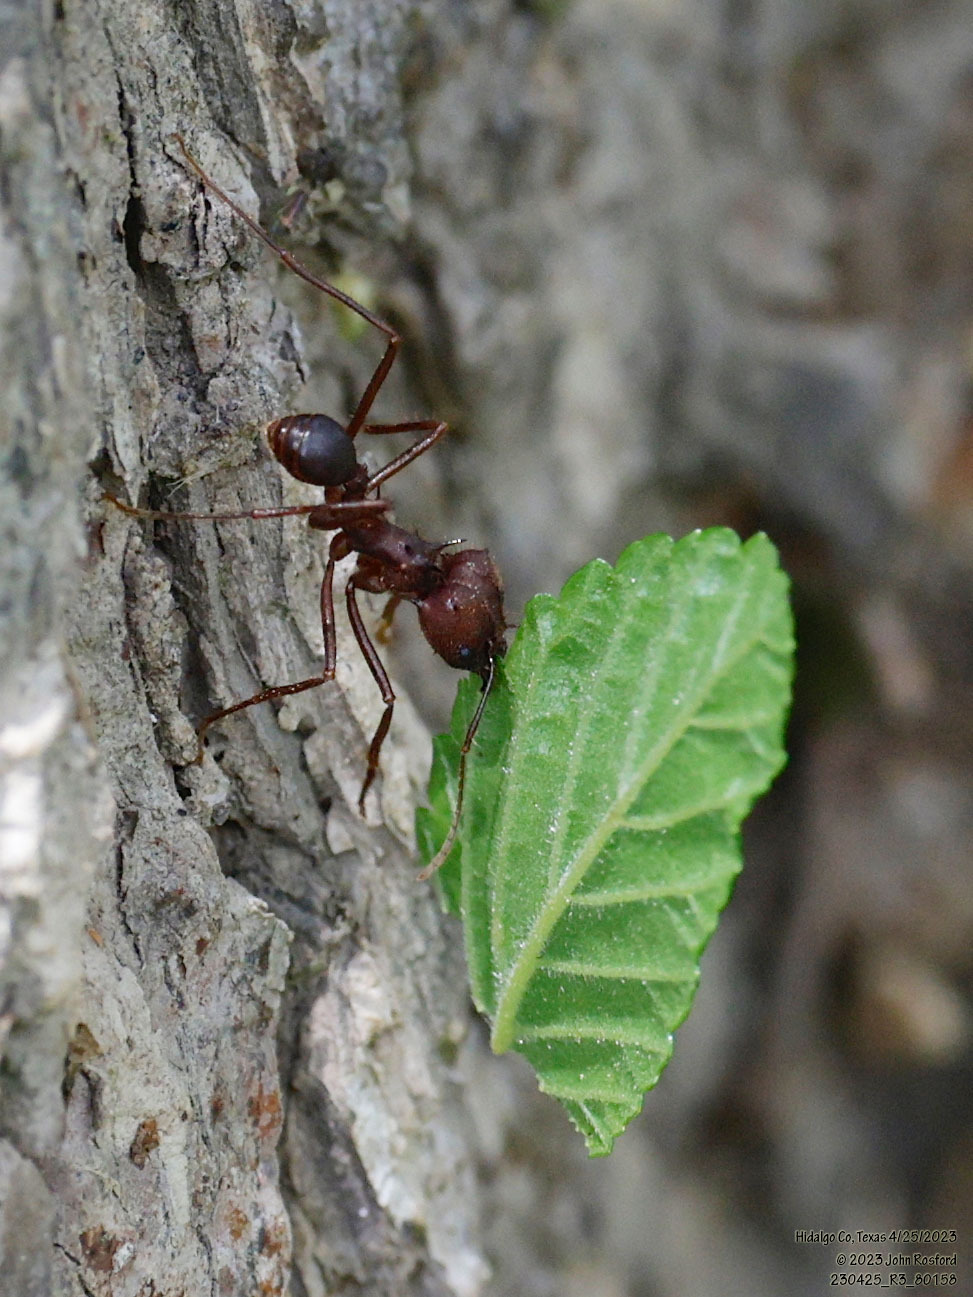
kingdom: Animalia
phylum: Arthropoda
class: Insecta
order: Hymenoptera
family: Formicidae
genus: Atta
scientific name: Atta texana
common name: Texas leafcutting ant
